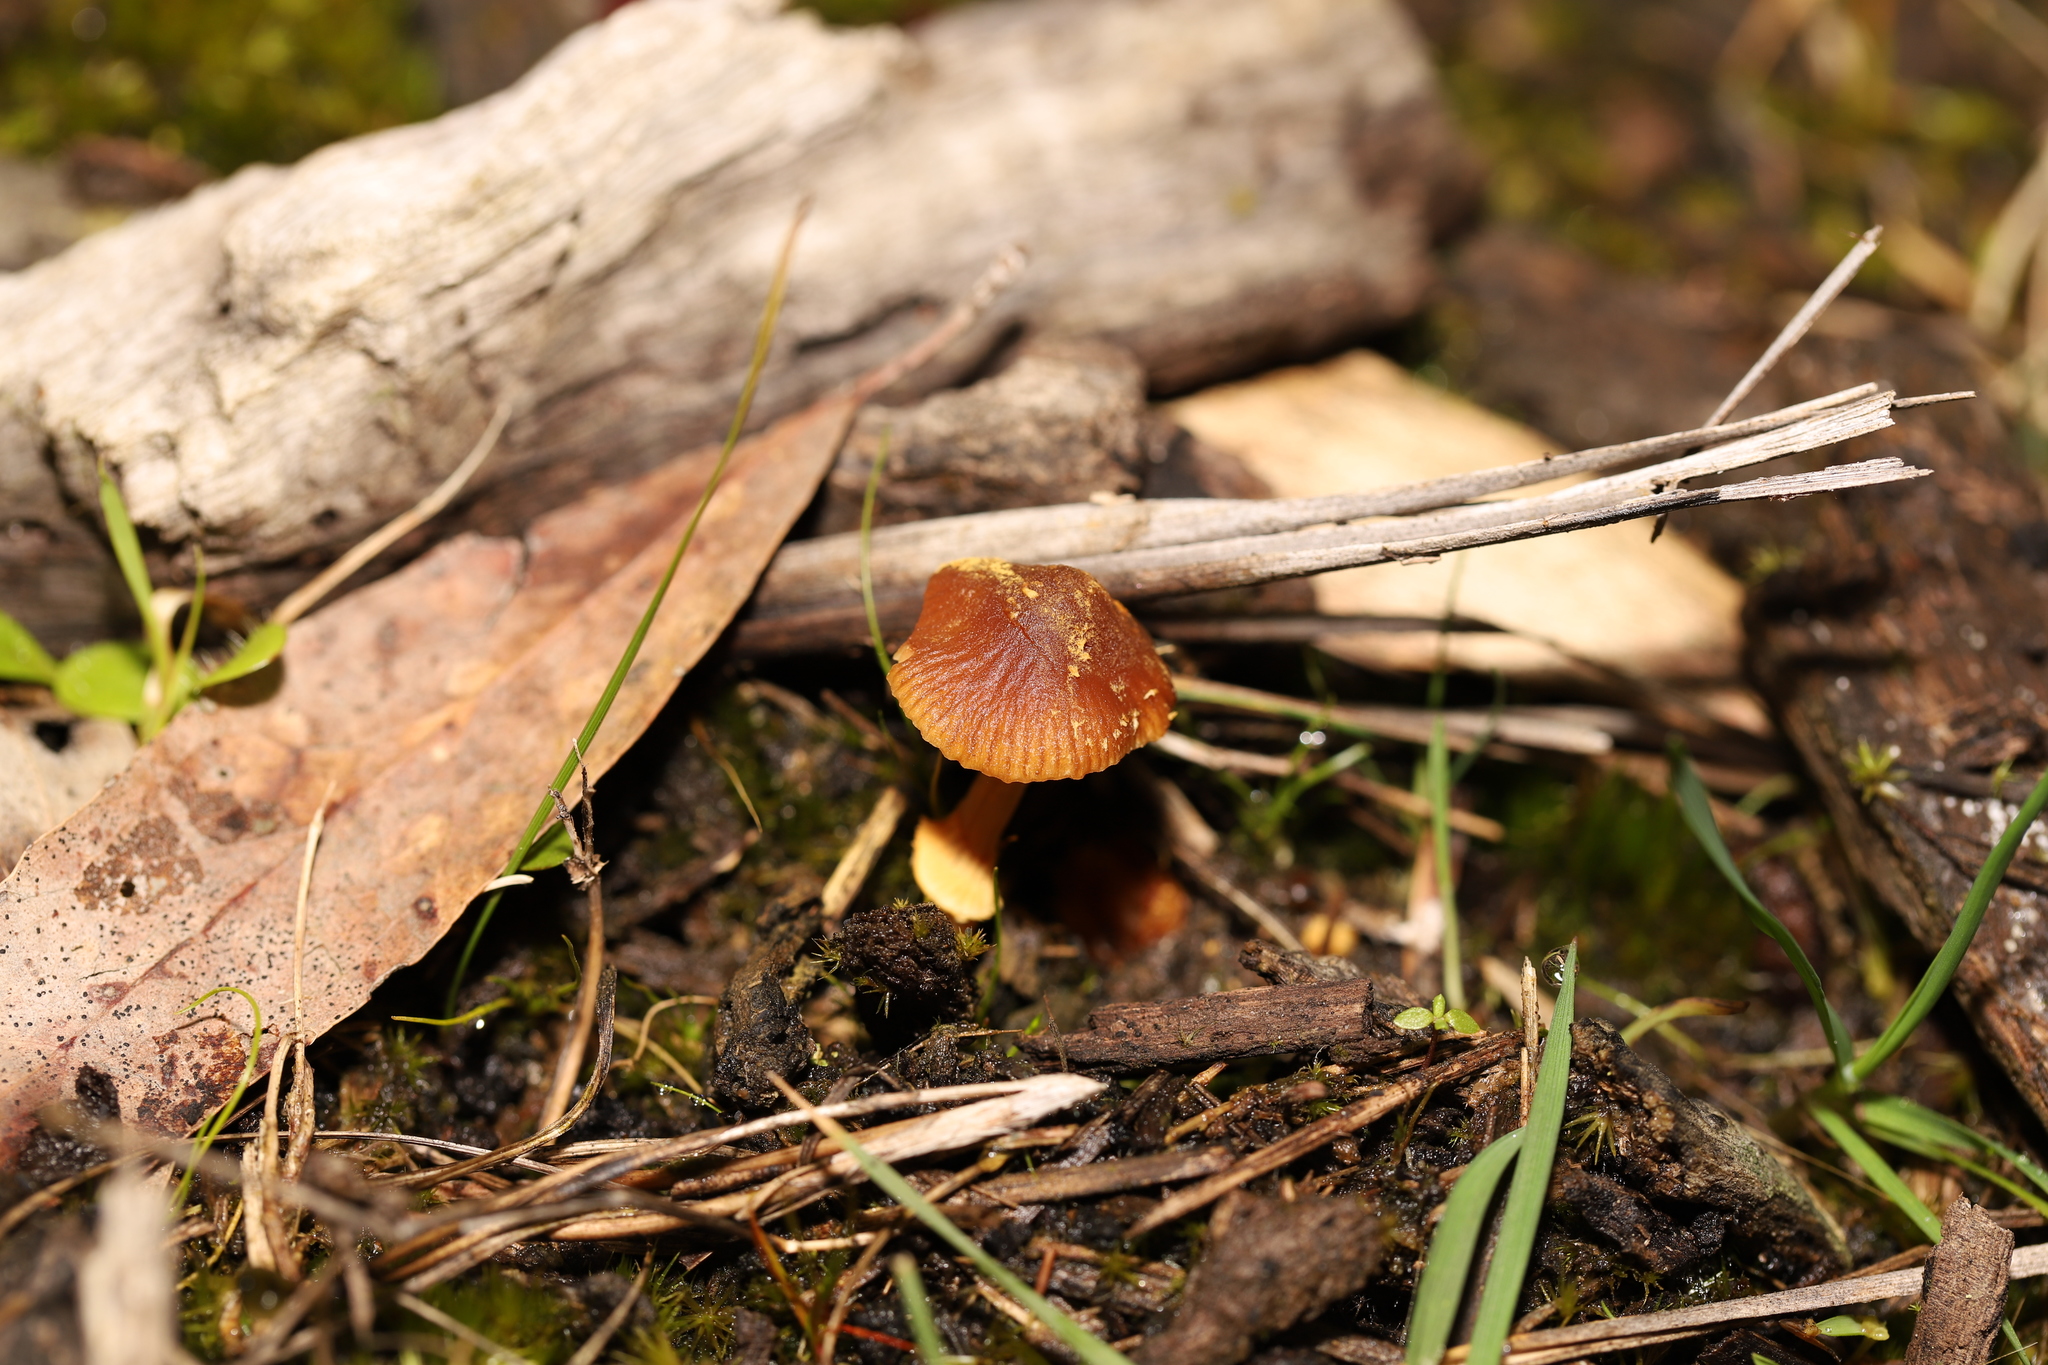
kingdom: Fungi
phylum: Basidiomycota
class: Agaricomycetes
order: Agaricales
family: Bolbitiaceae
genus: Descolea
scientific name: Descolea recedens
